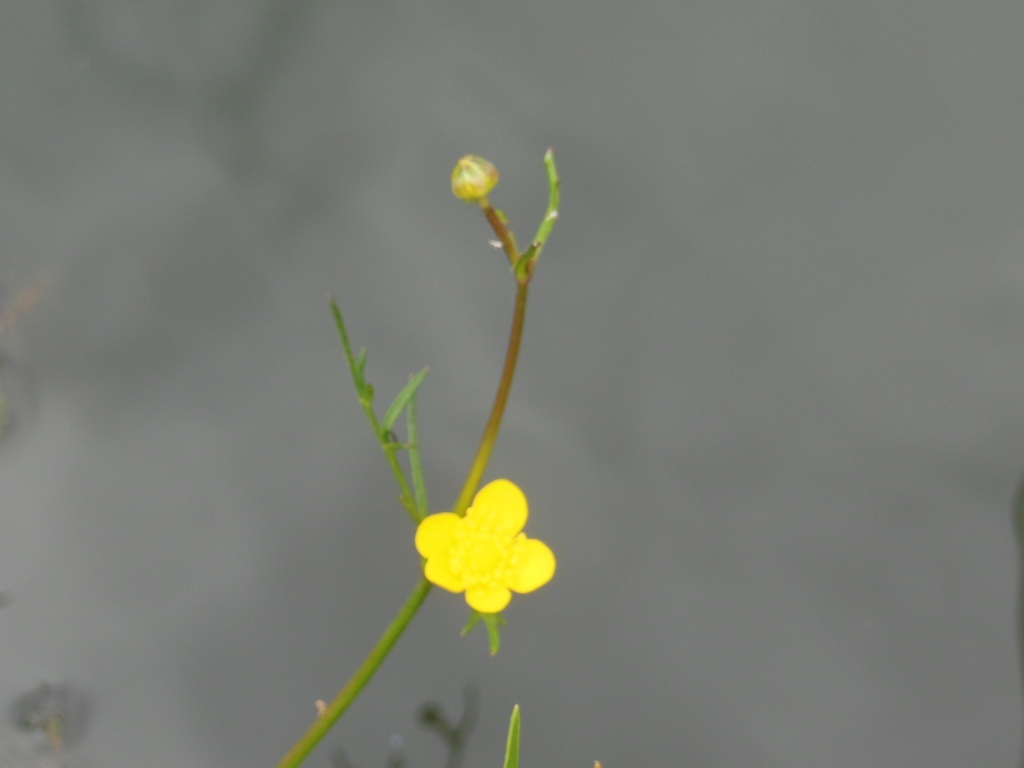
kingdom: Plantae
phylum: Tracheophyta
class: Magnoliopsida
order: Ranunculales
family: Ranunculaceae
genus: Ranunculus
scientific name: Ranunculus pilosus
